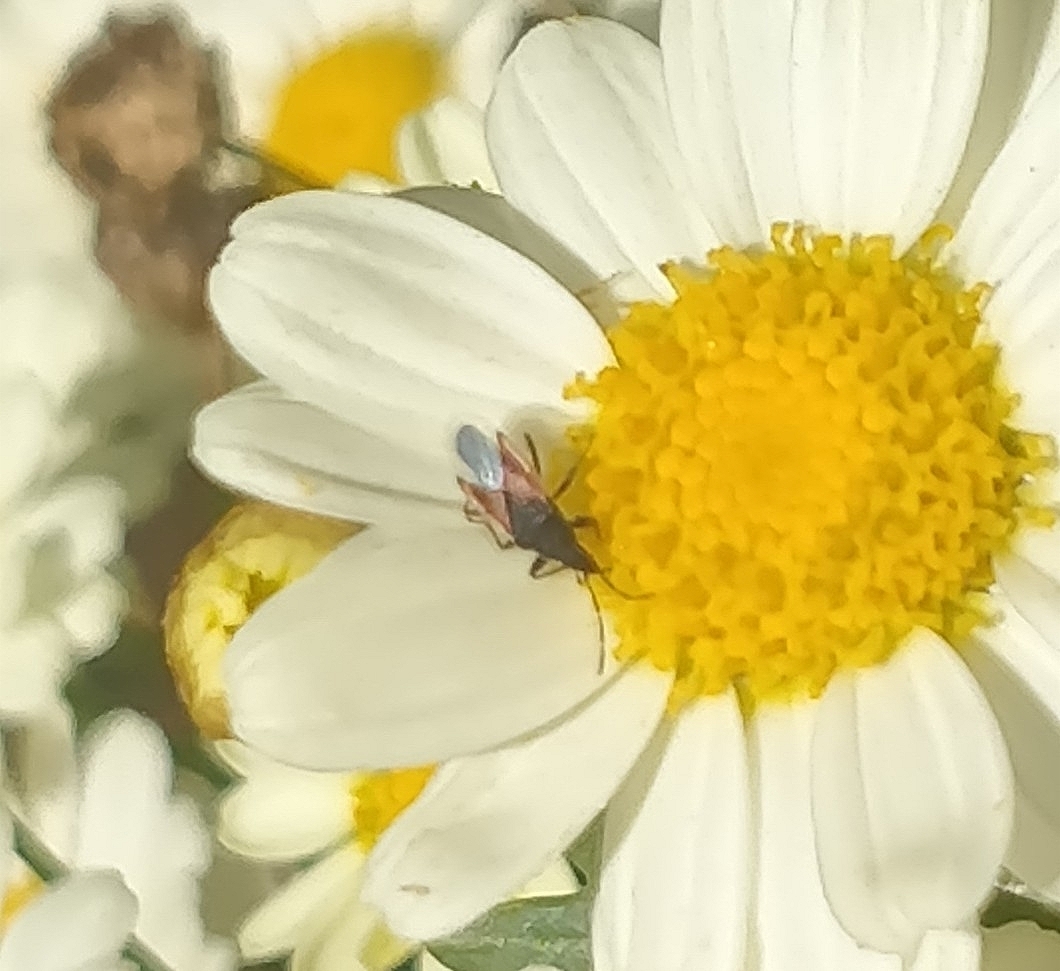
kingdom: Animalia
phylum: Arthropoda
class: Insecta
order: Hemiptera
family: Oxycarenidae
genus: Oxycarenus
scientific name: Oxycarenus lavaterae
